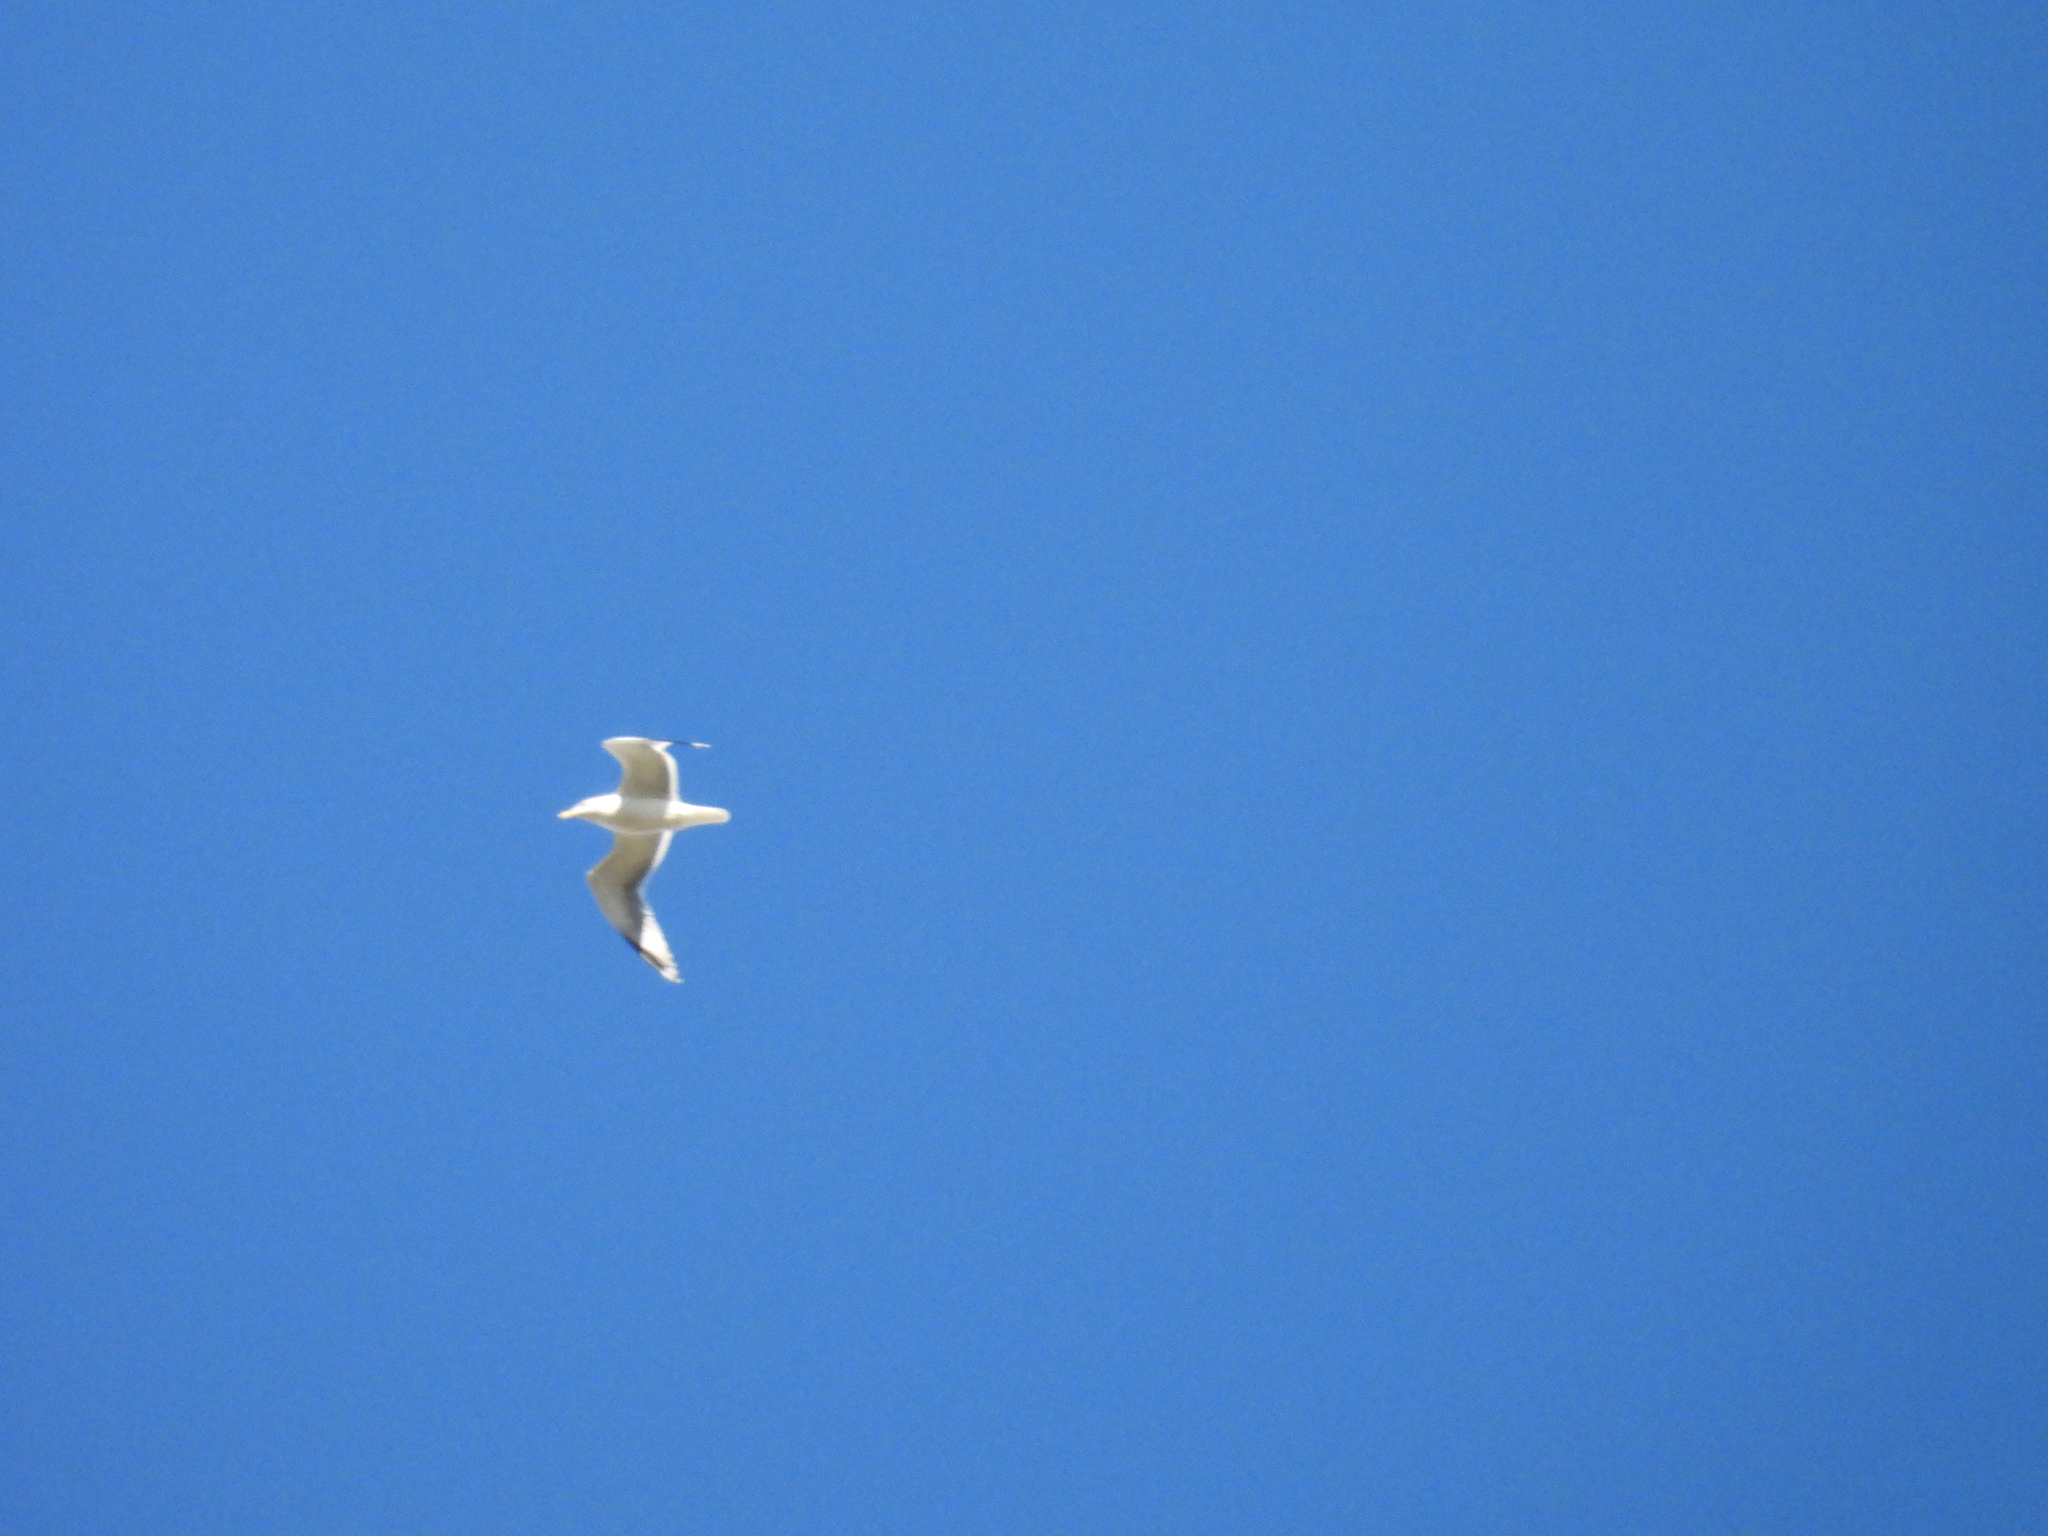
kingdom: Animalia
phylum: Chordata
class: Aves
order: Charadriiformes
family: Laridae
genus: Larus
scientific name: Larus
